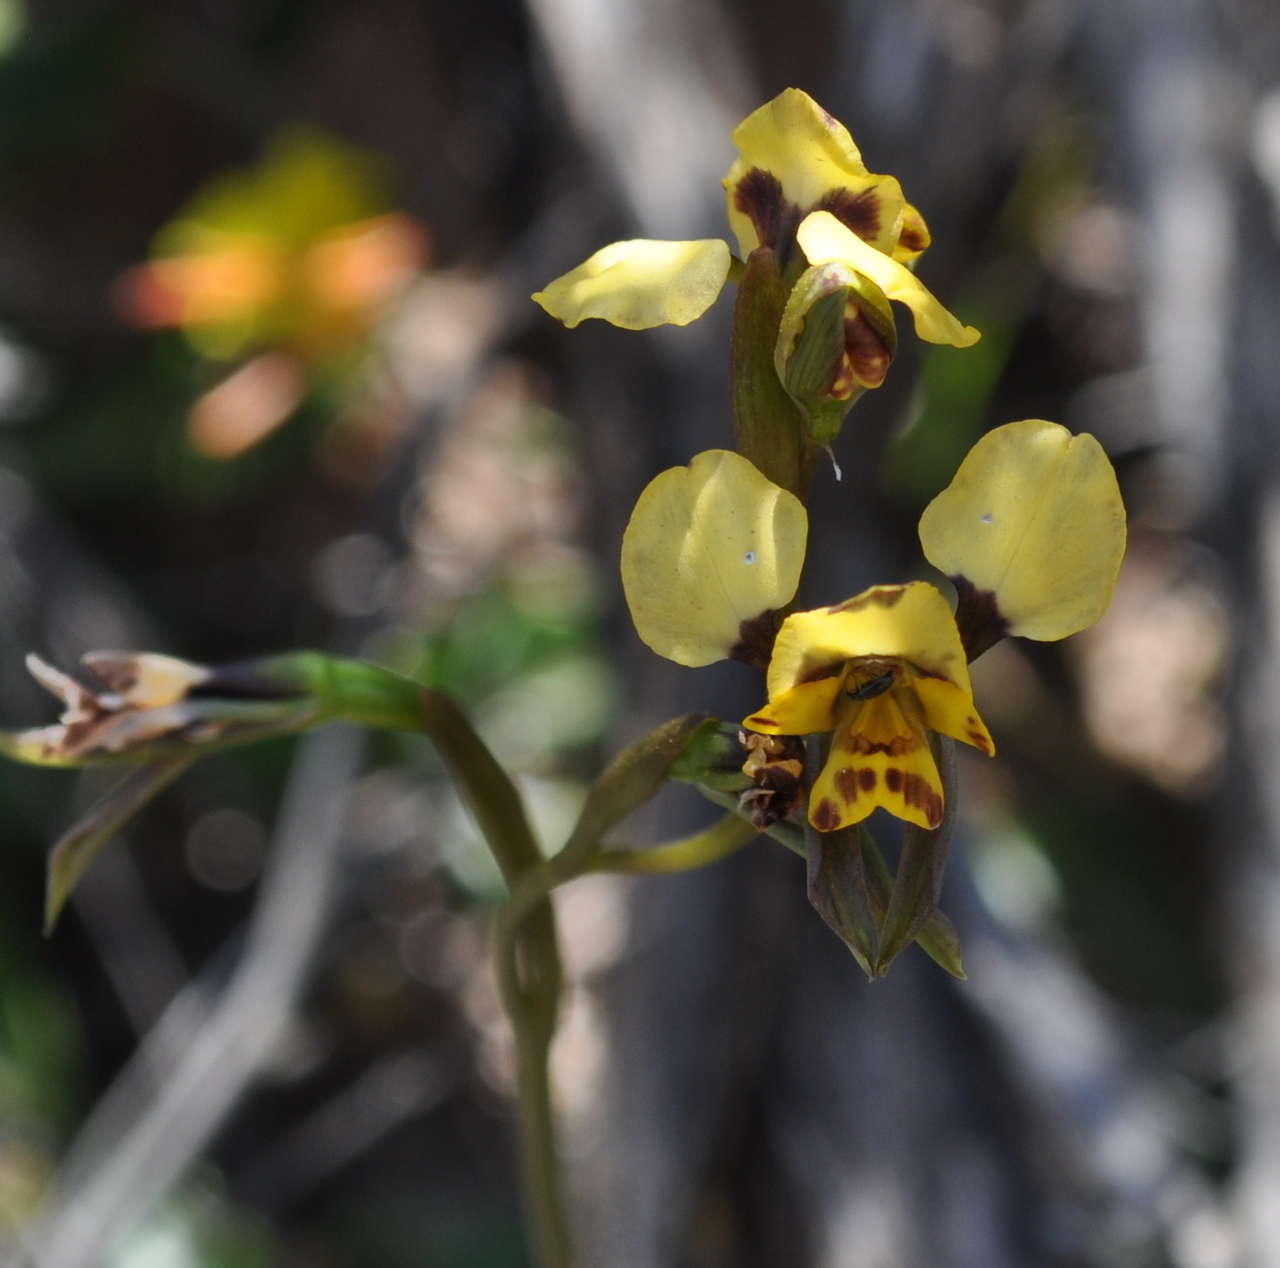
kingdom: Plantae
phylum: Tracheophyta
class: Liliopsida
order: Asparagales
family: Orchidaceae
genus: Diuris
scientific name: Diuris pardina
